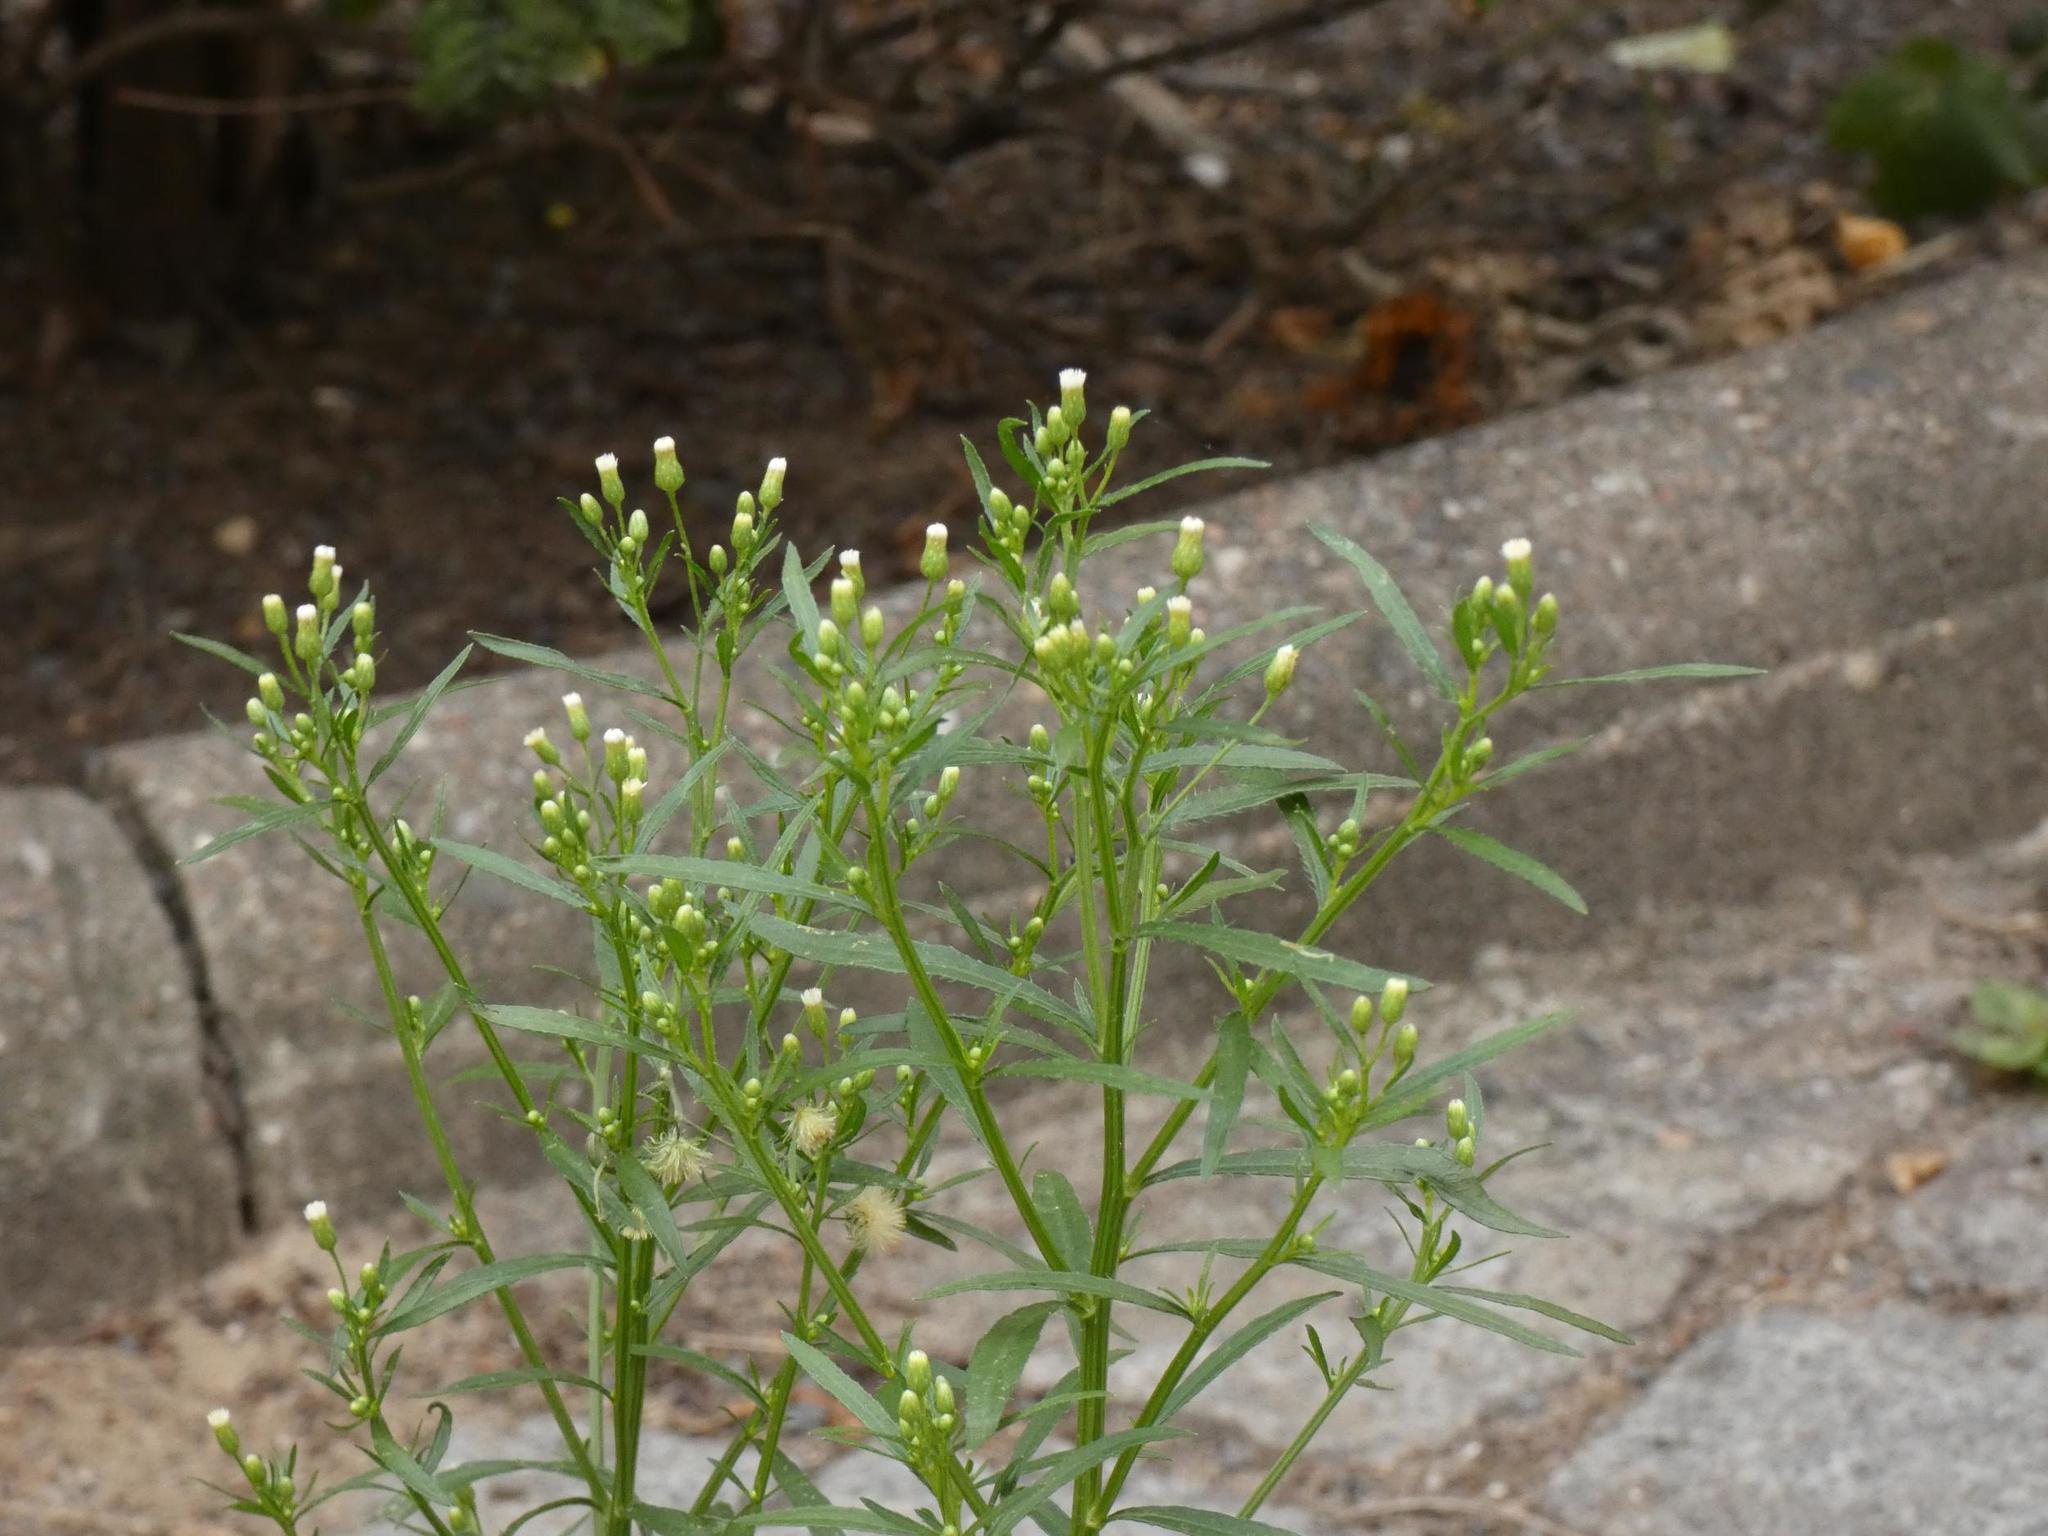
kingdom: Plantae
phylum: Tracheophyta
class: Magnoliopsida
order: Asterales
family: Asteraceae
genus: Erigeron
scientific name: Erigeron canadensis
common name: Canadian fleabane
